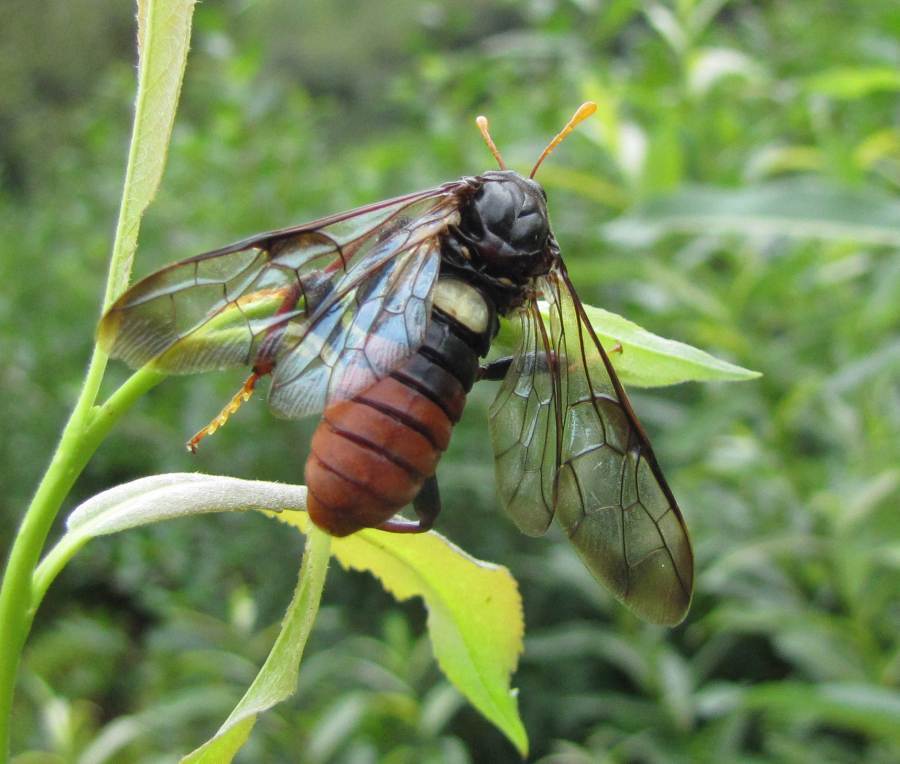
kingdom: Animalia
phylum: Arthropoda
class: Insecta
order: Hymenoptera
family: Cimbicidae
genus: Cimbex
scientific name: Cimbex americana
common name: Elm sawfly
